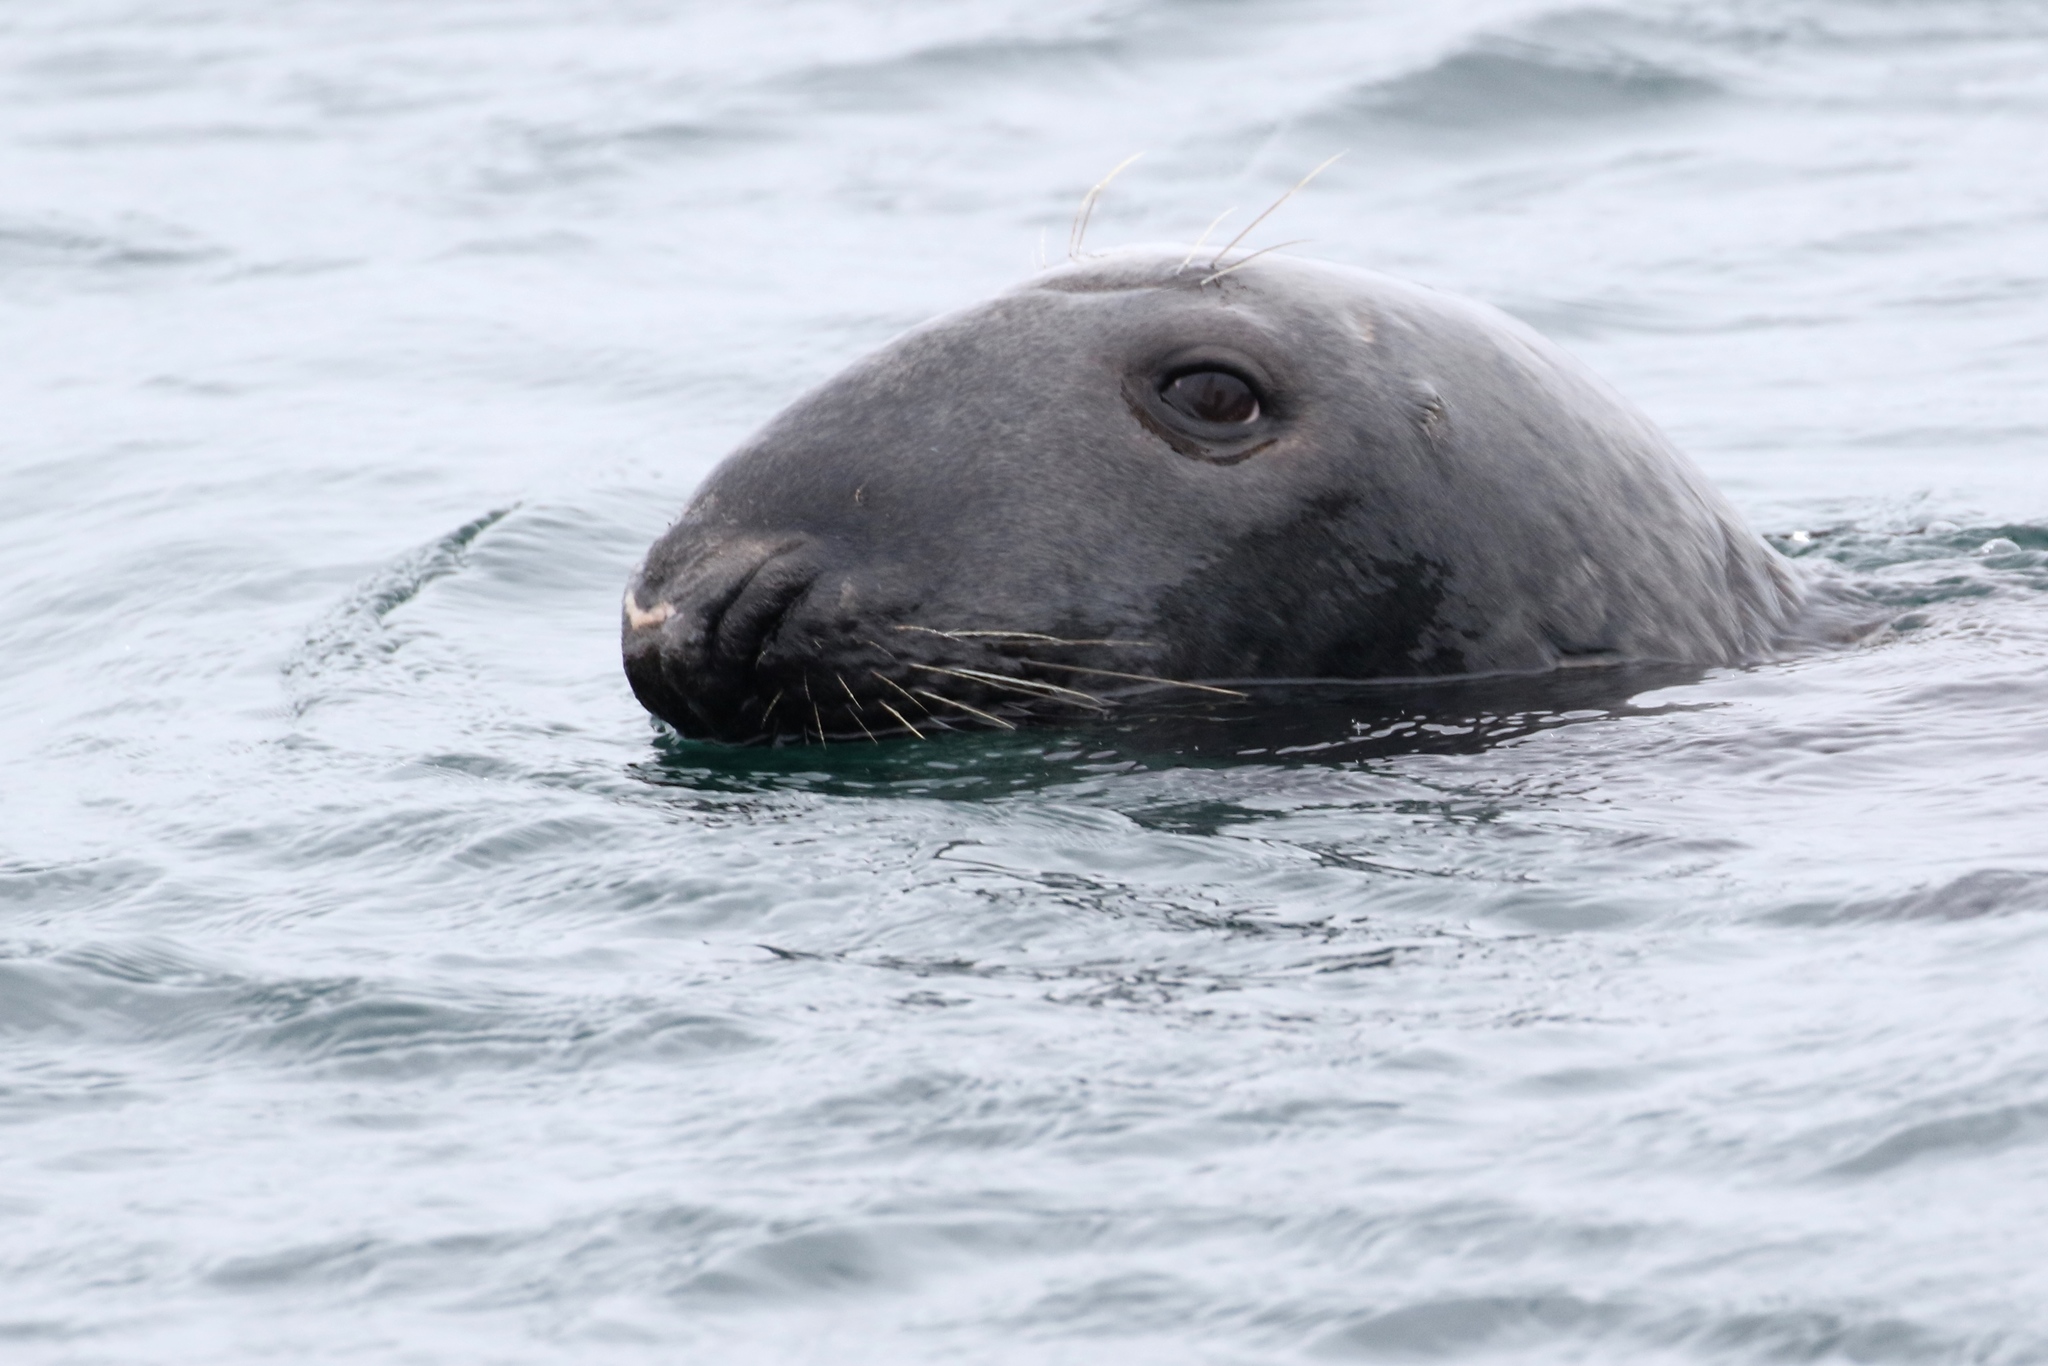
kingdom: Animalia
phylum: Chordata
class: Mammalia
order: Carnivora
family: Phocidae
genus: Halichoerus
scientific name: Halichoerus grypus
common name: Grey seal
